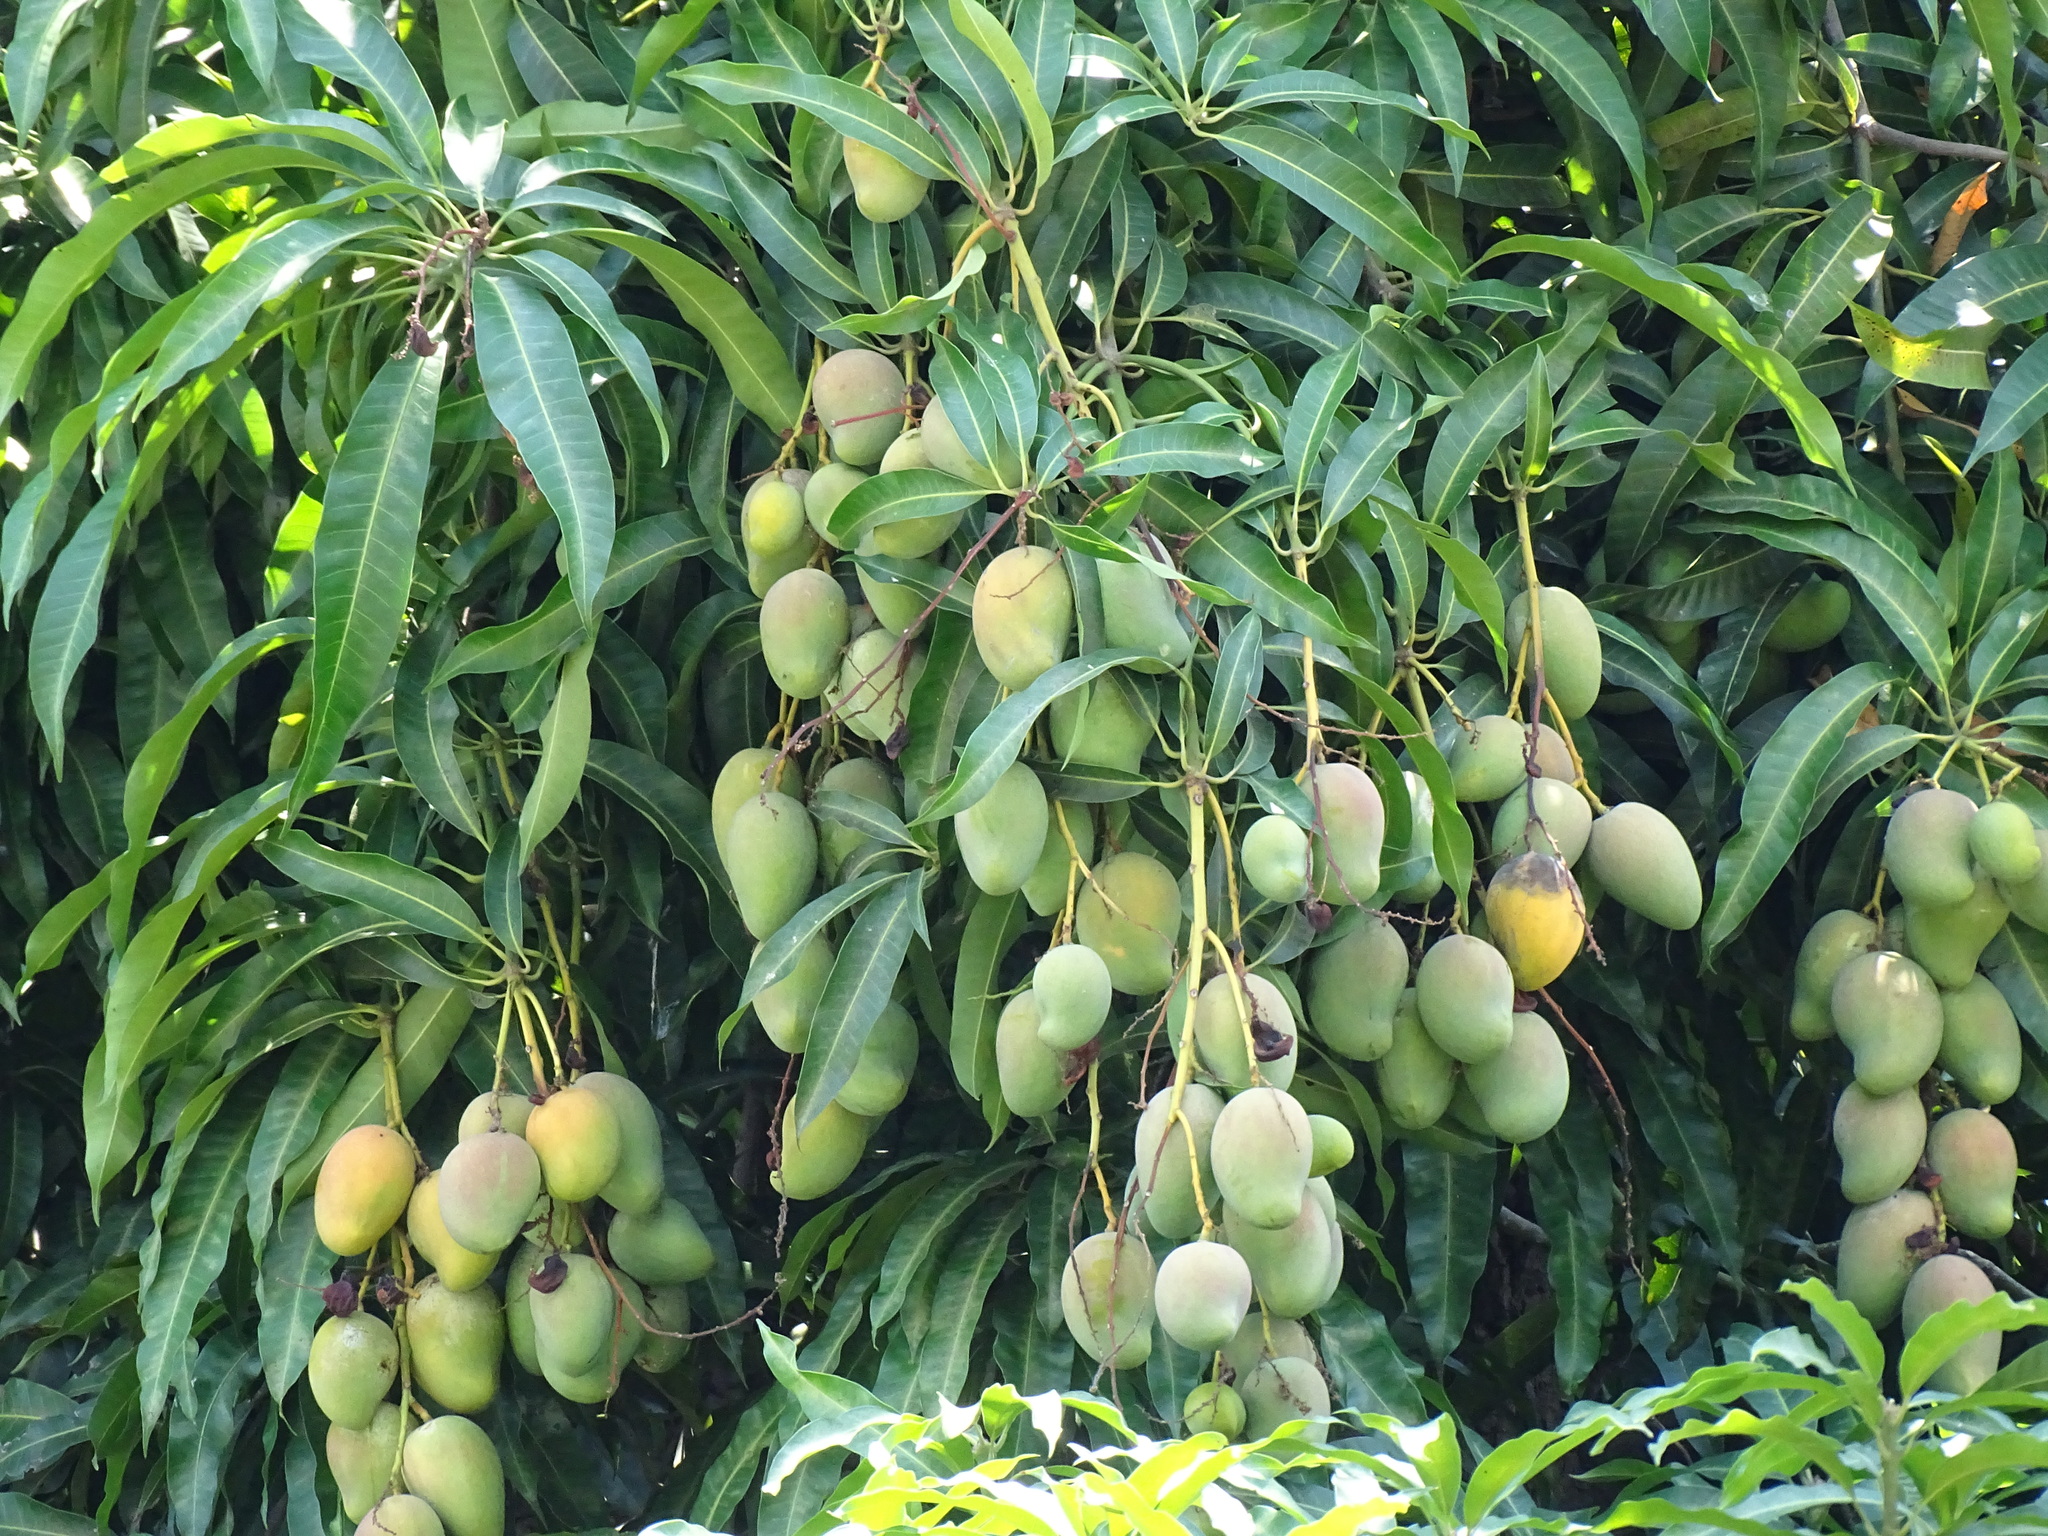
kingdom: Plantae
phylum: Tracheophyta
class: Magnoliopsida
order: Sapindales
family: Anacardiaceae
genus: Mangifera
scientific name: Mangifera indica
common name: Mango
